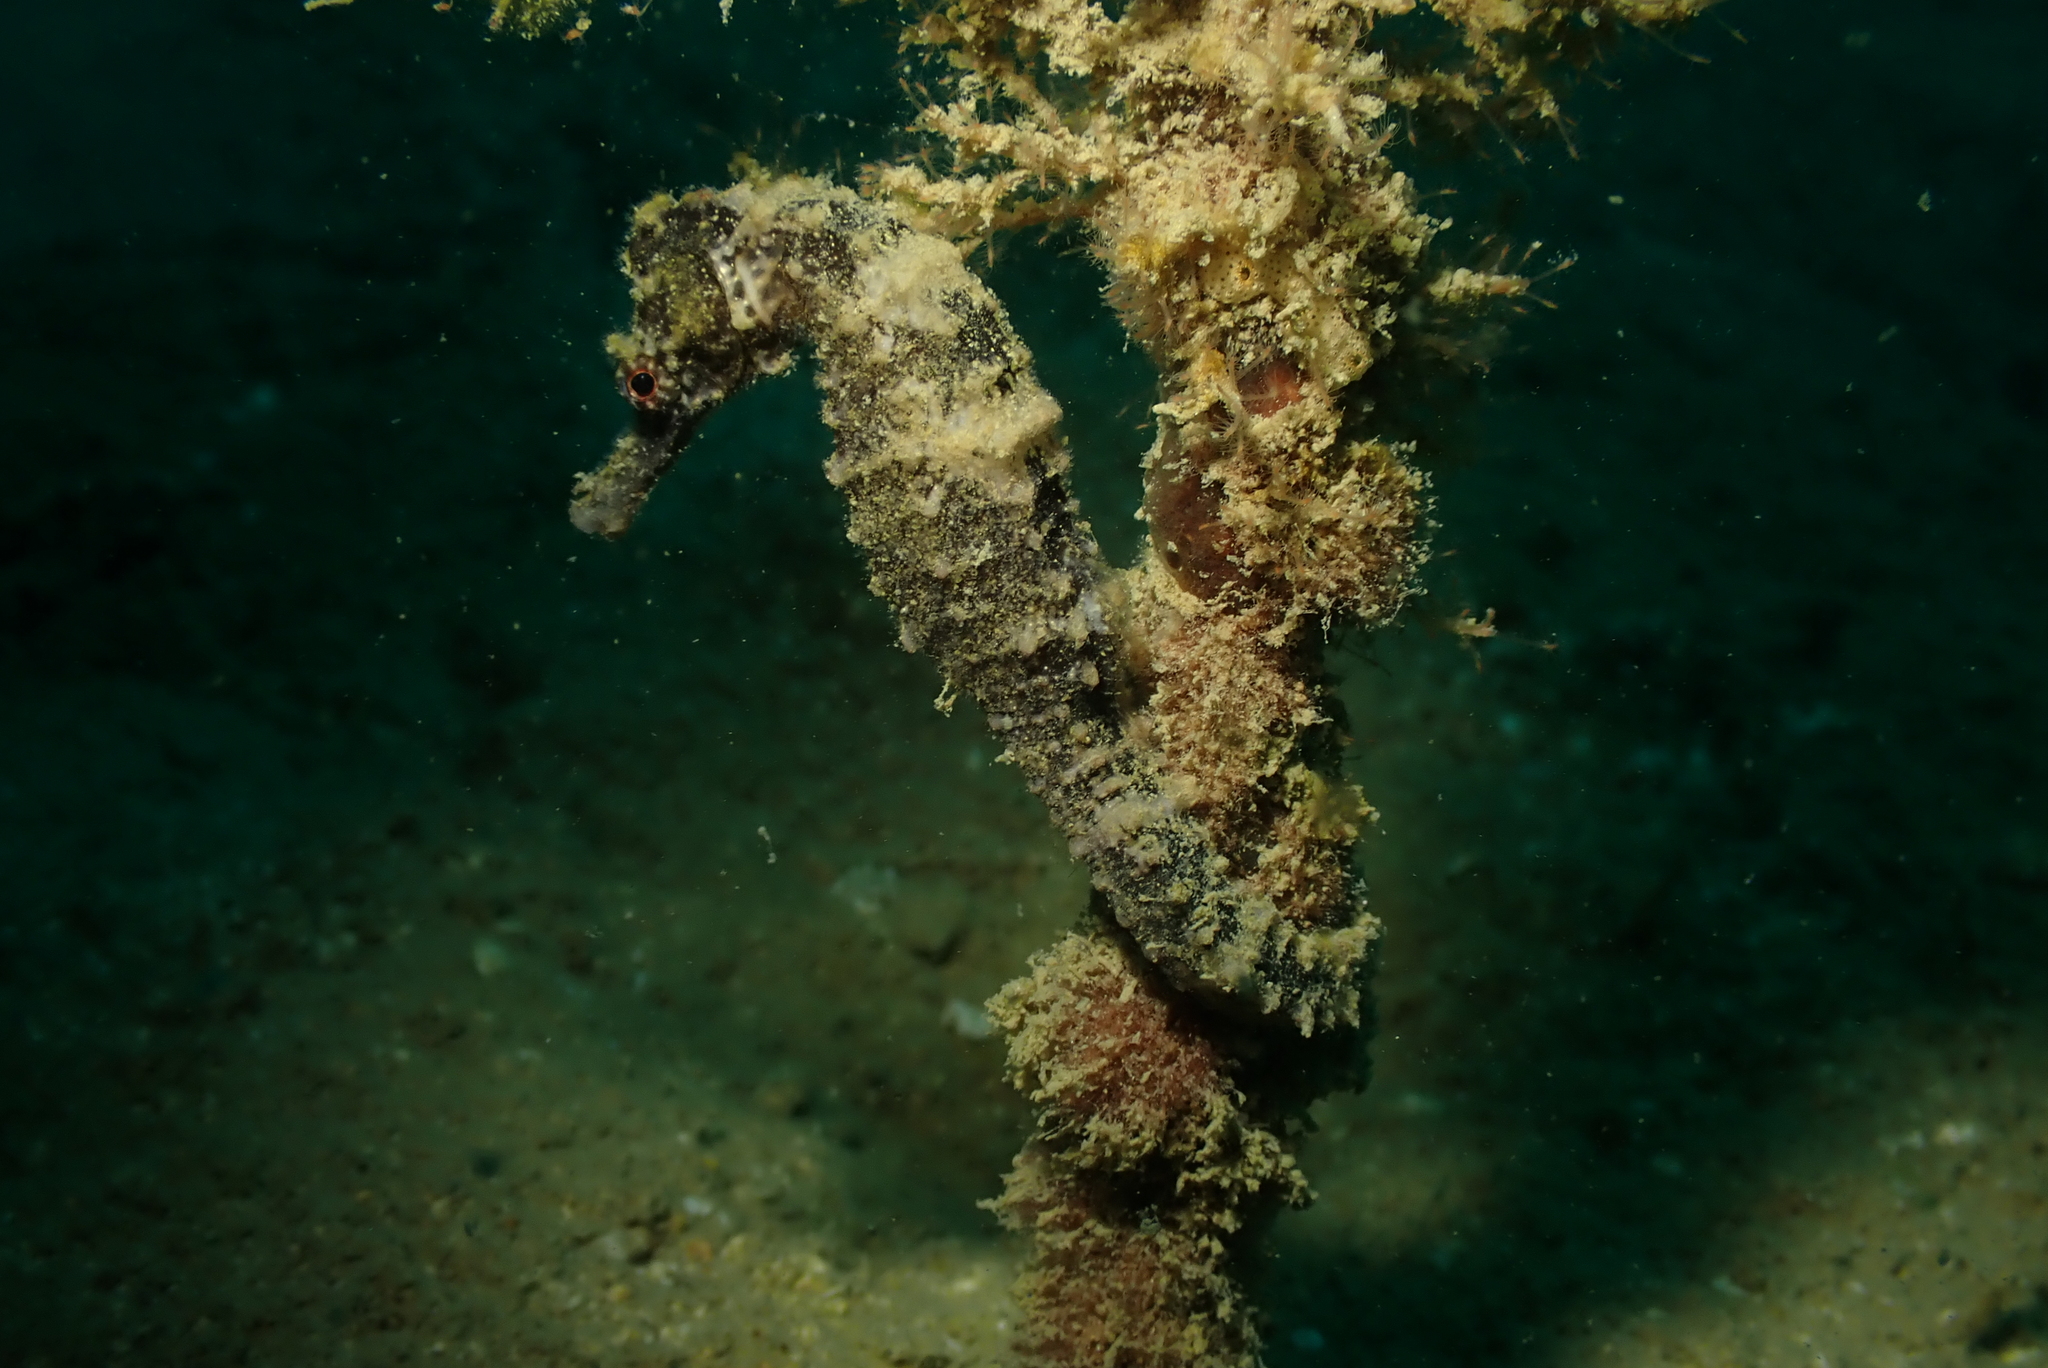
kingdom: Animalia
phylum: Chordata
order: Syngnathiformes
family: Syngnathidae
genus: Hippocampus
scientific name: Hippocampus kuda
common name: Spotted seahorse
